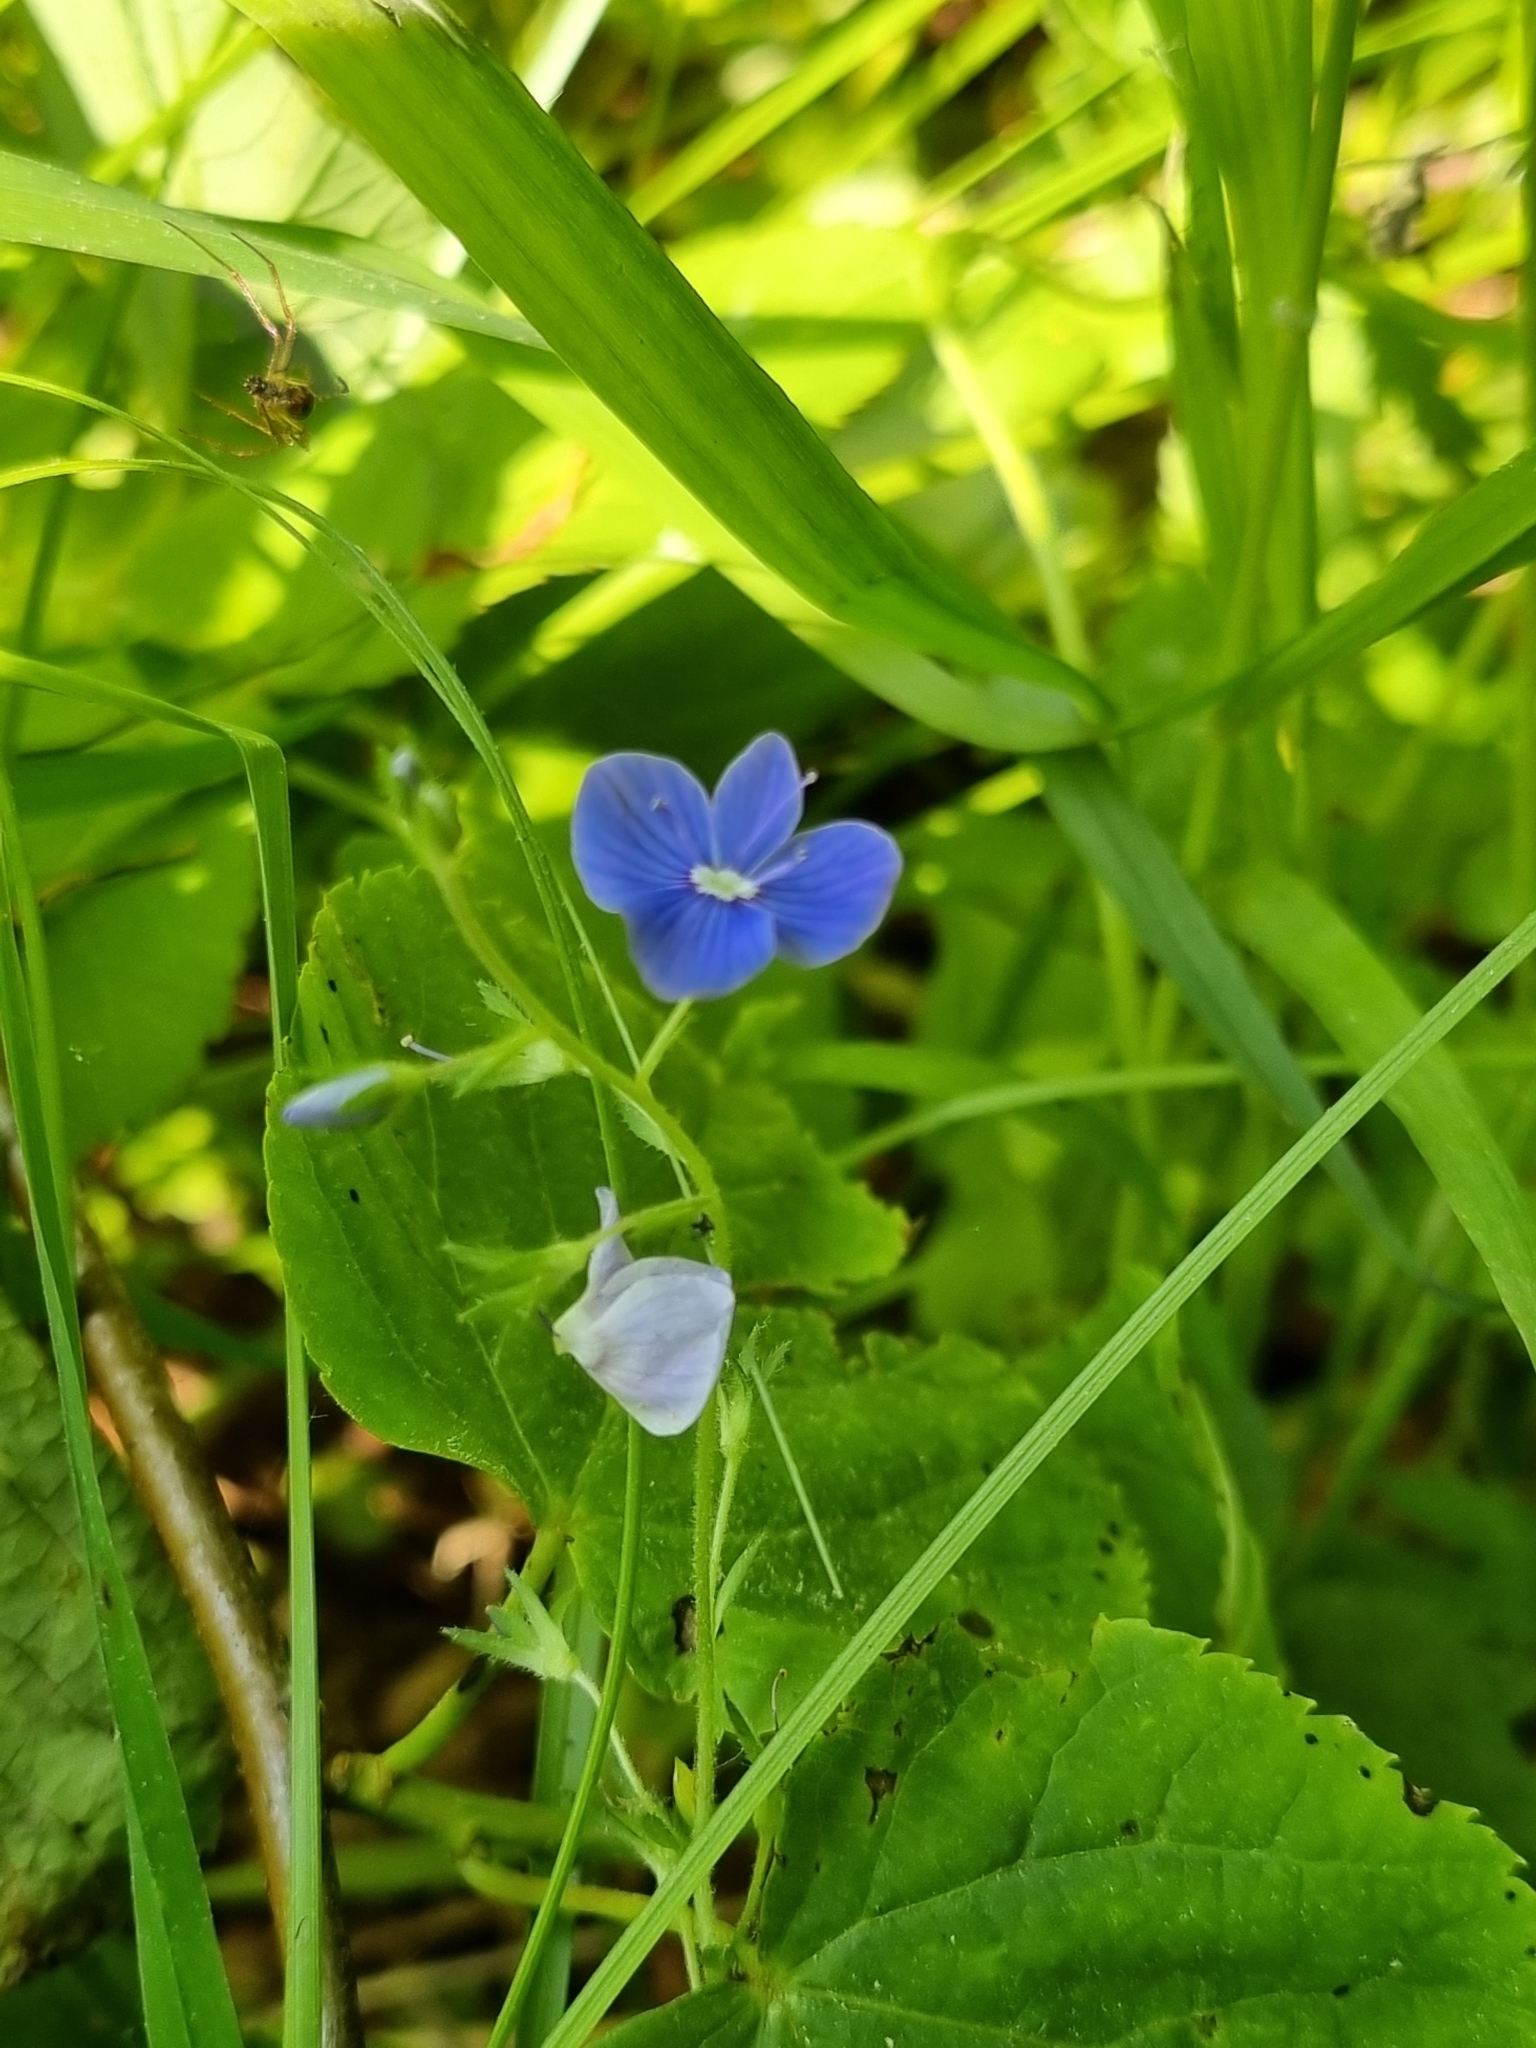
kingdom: Plantae
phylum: Tracheophyta
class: Magnoliopsida
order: Lamiales
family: Plantaginaceae
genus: Veronica
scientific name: Veronica chamaedrys
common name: Germander speedwell
